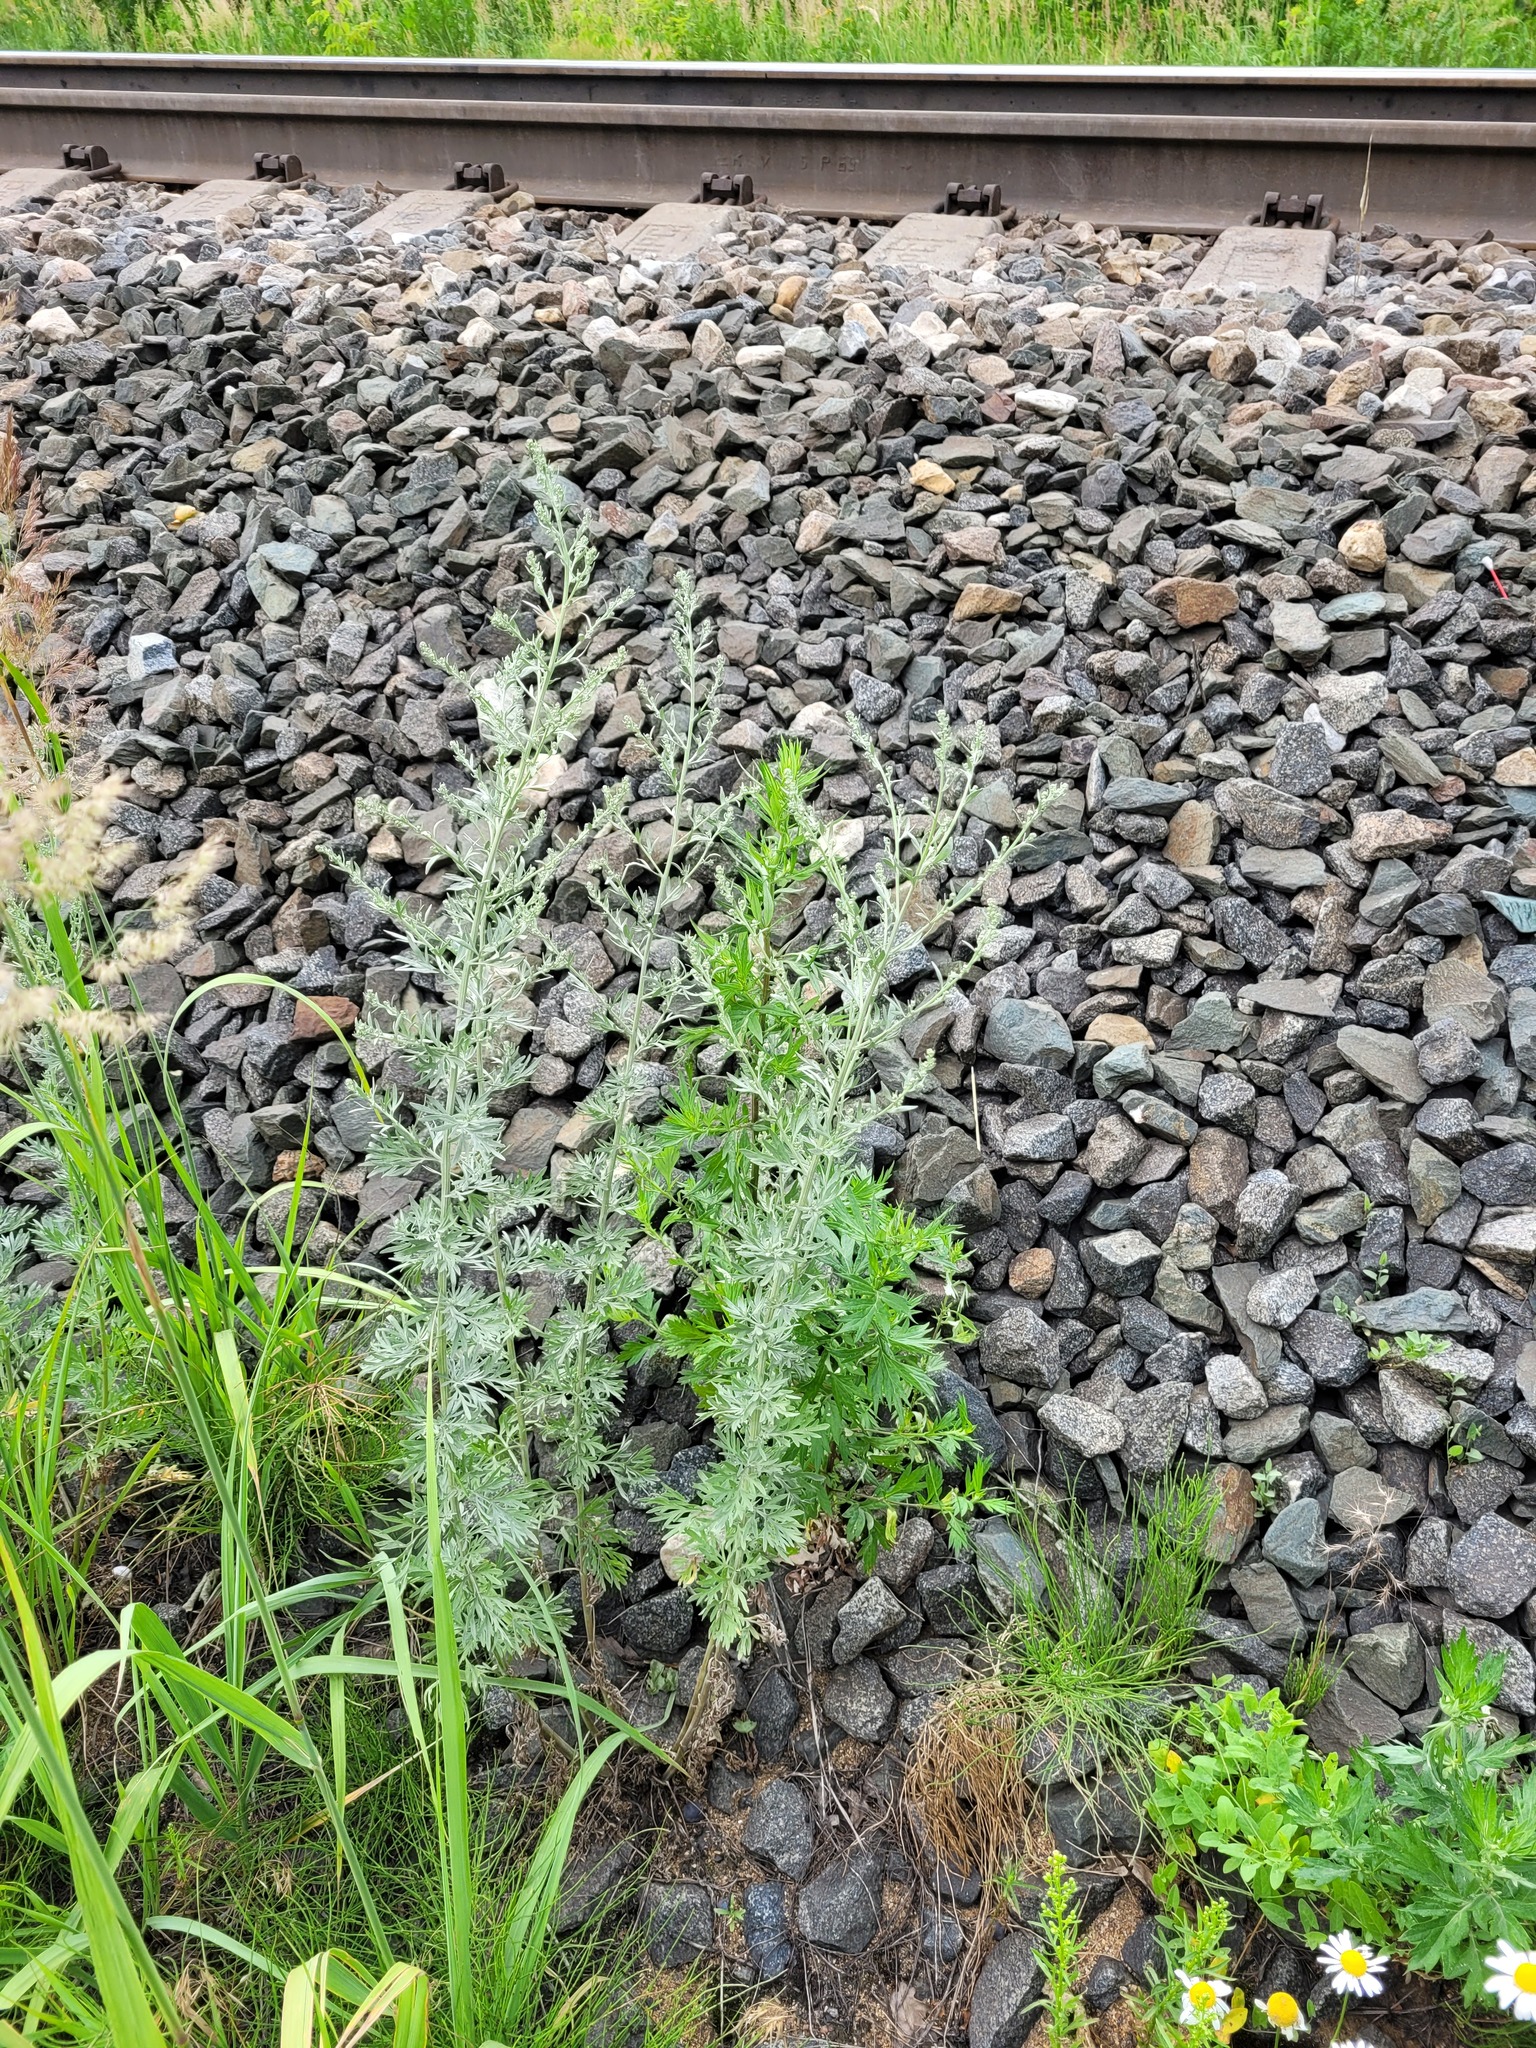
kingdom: Plantae
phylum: Tracheophyta
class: Magnoliopsida
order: Asterales
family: Asteraceae
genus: Artemisia
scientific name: Artemisia absinthium
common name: Wormwood
